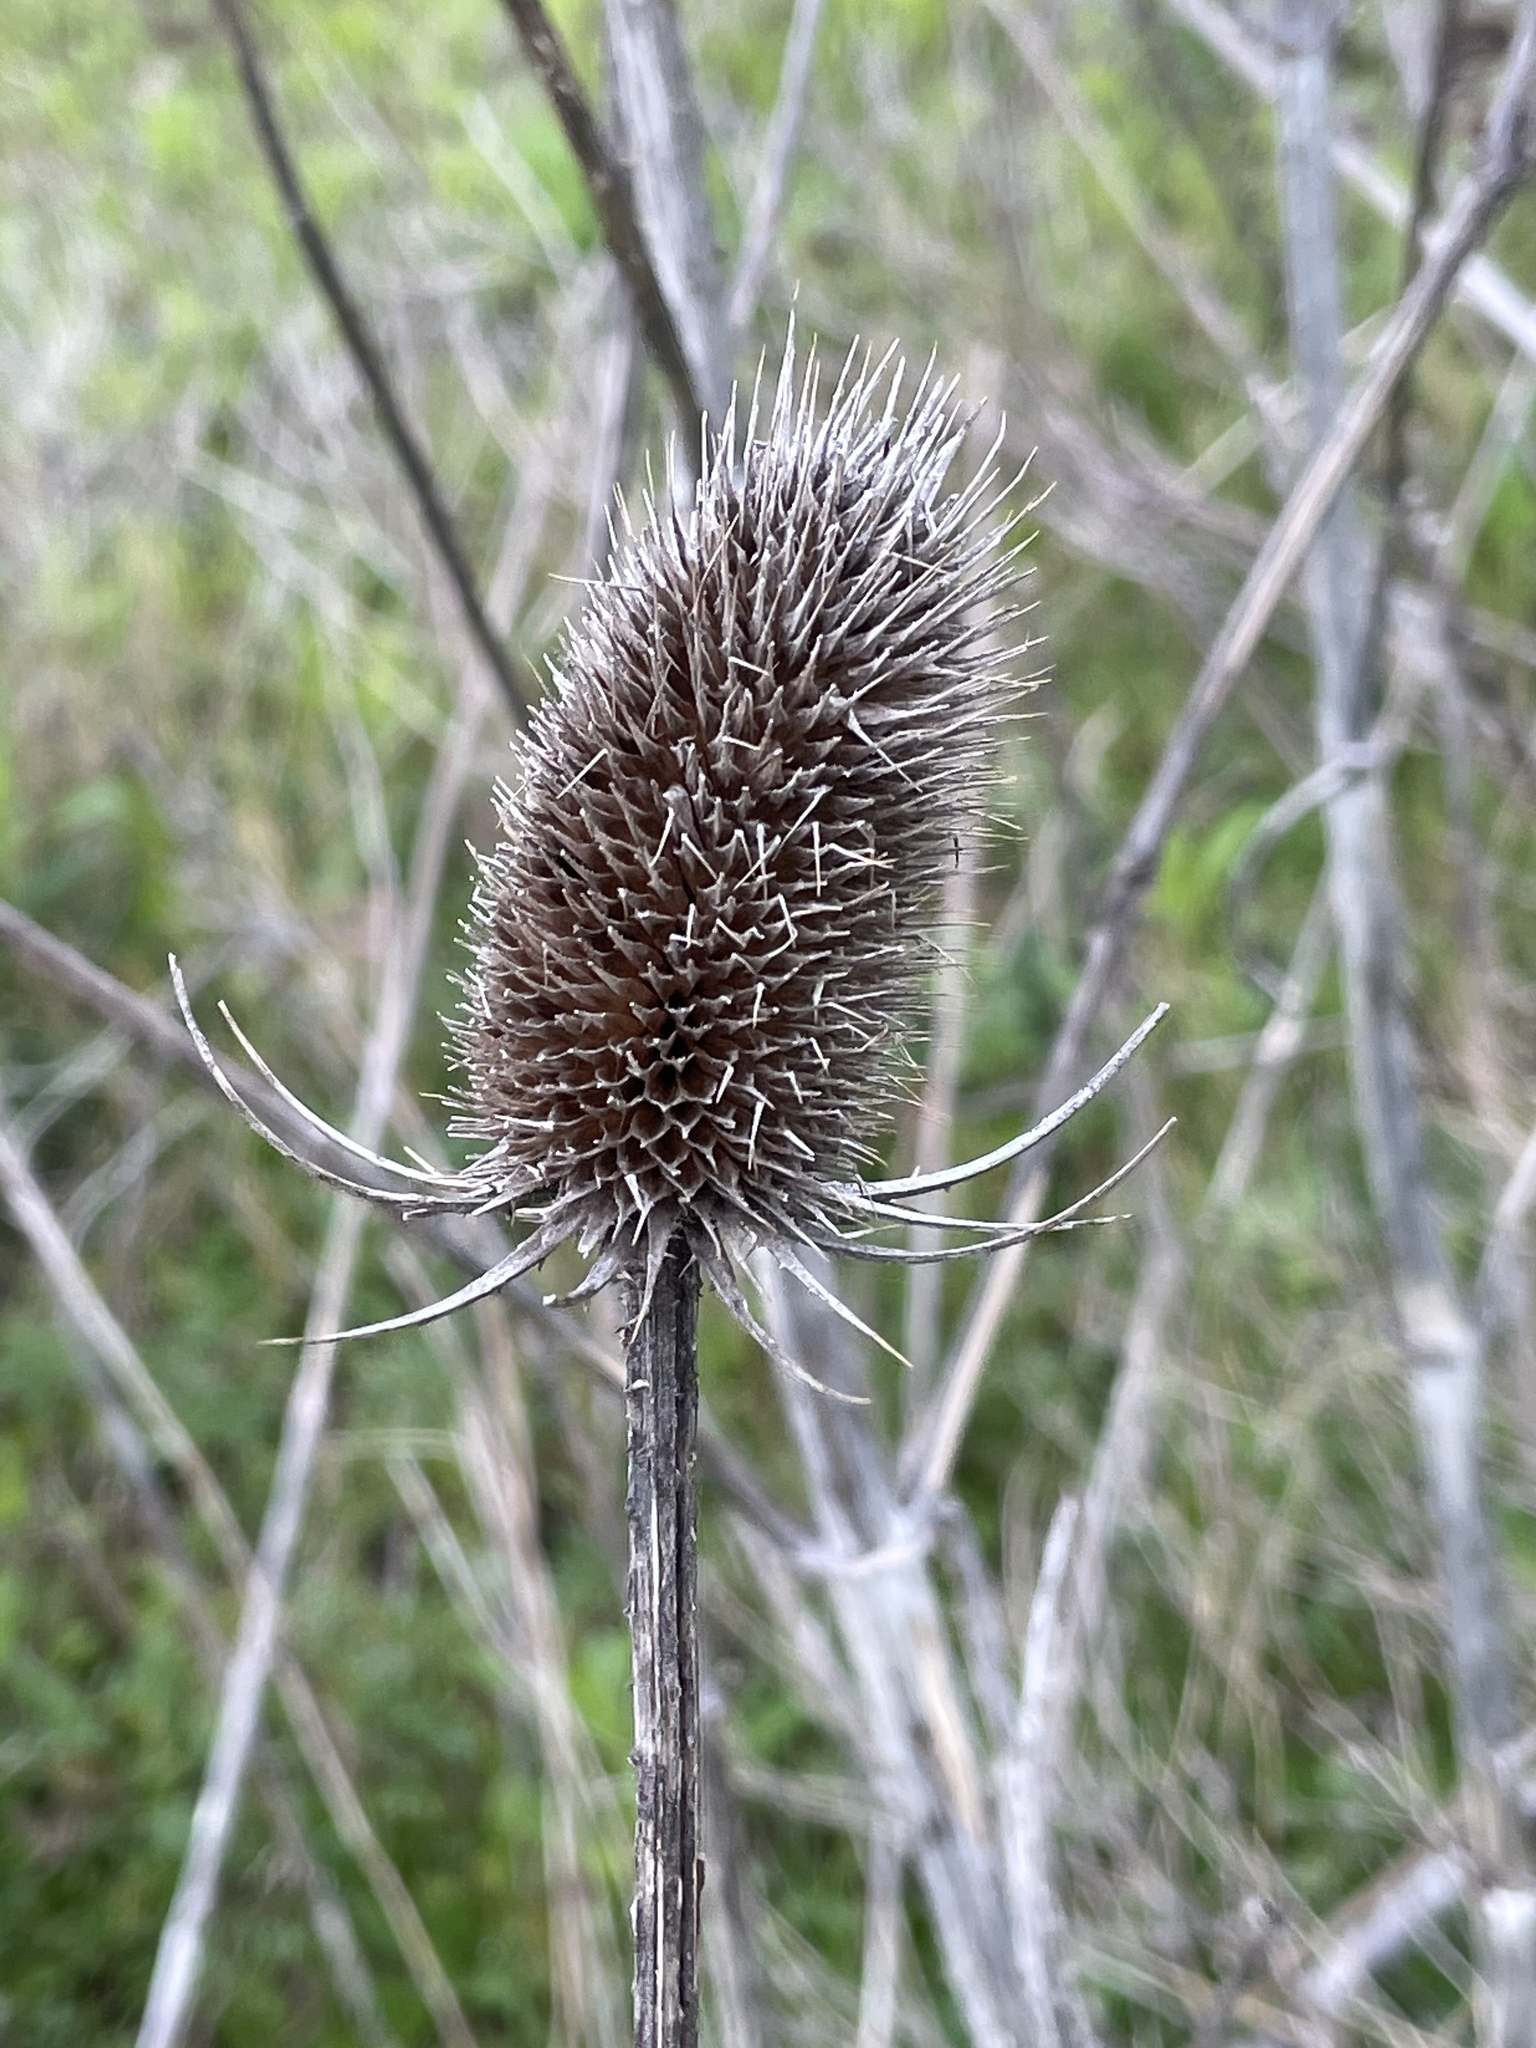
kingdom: Plantae
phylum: Tracheophyta
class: Magnoliopsida
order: Dipsacales
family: Caprifoliaceae
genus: Dipsacus
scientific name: Dipsacus fullonum
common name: Teasel
